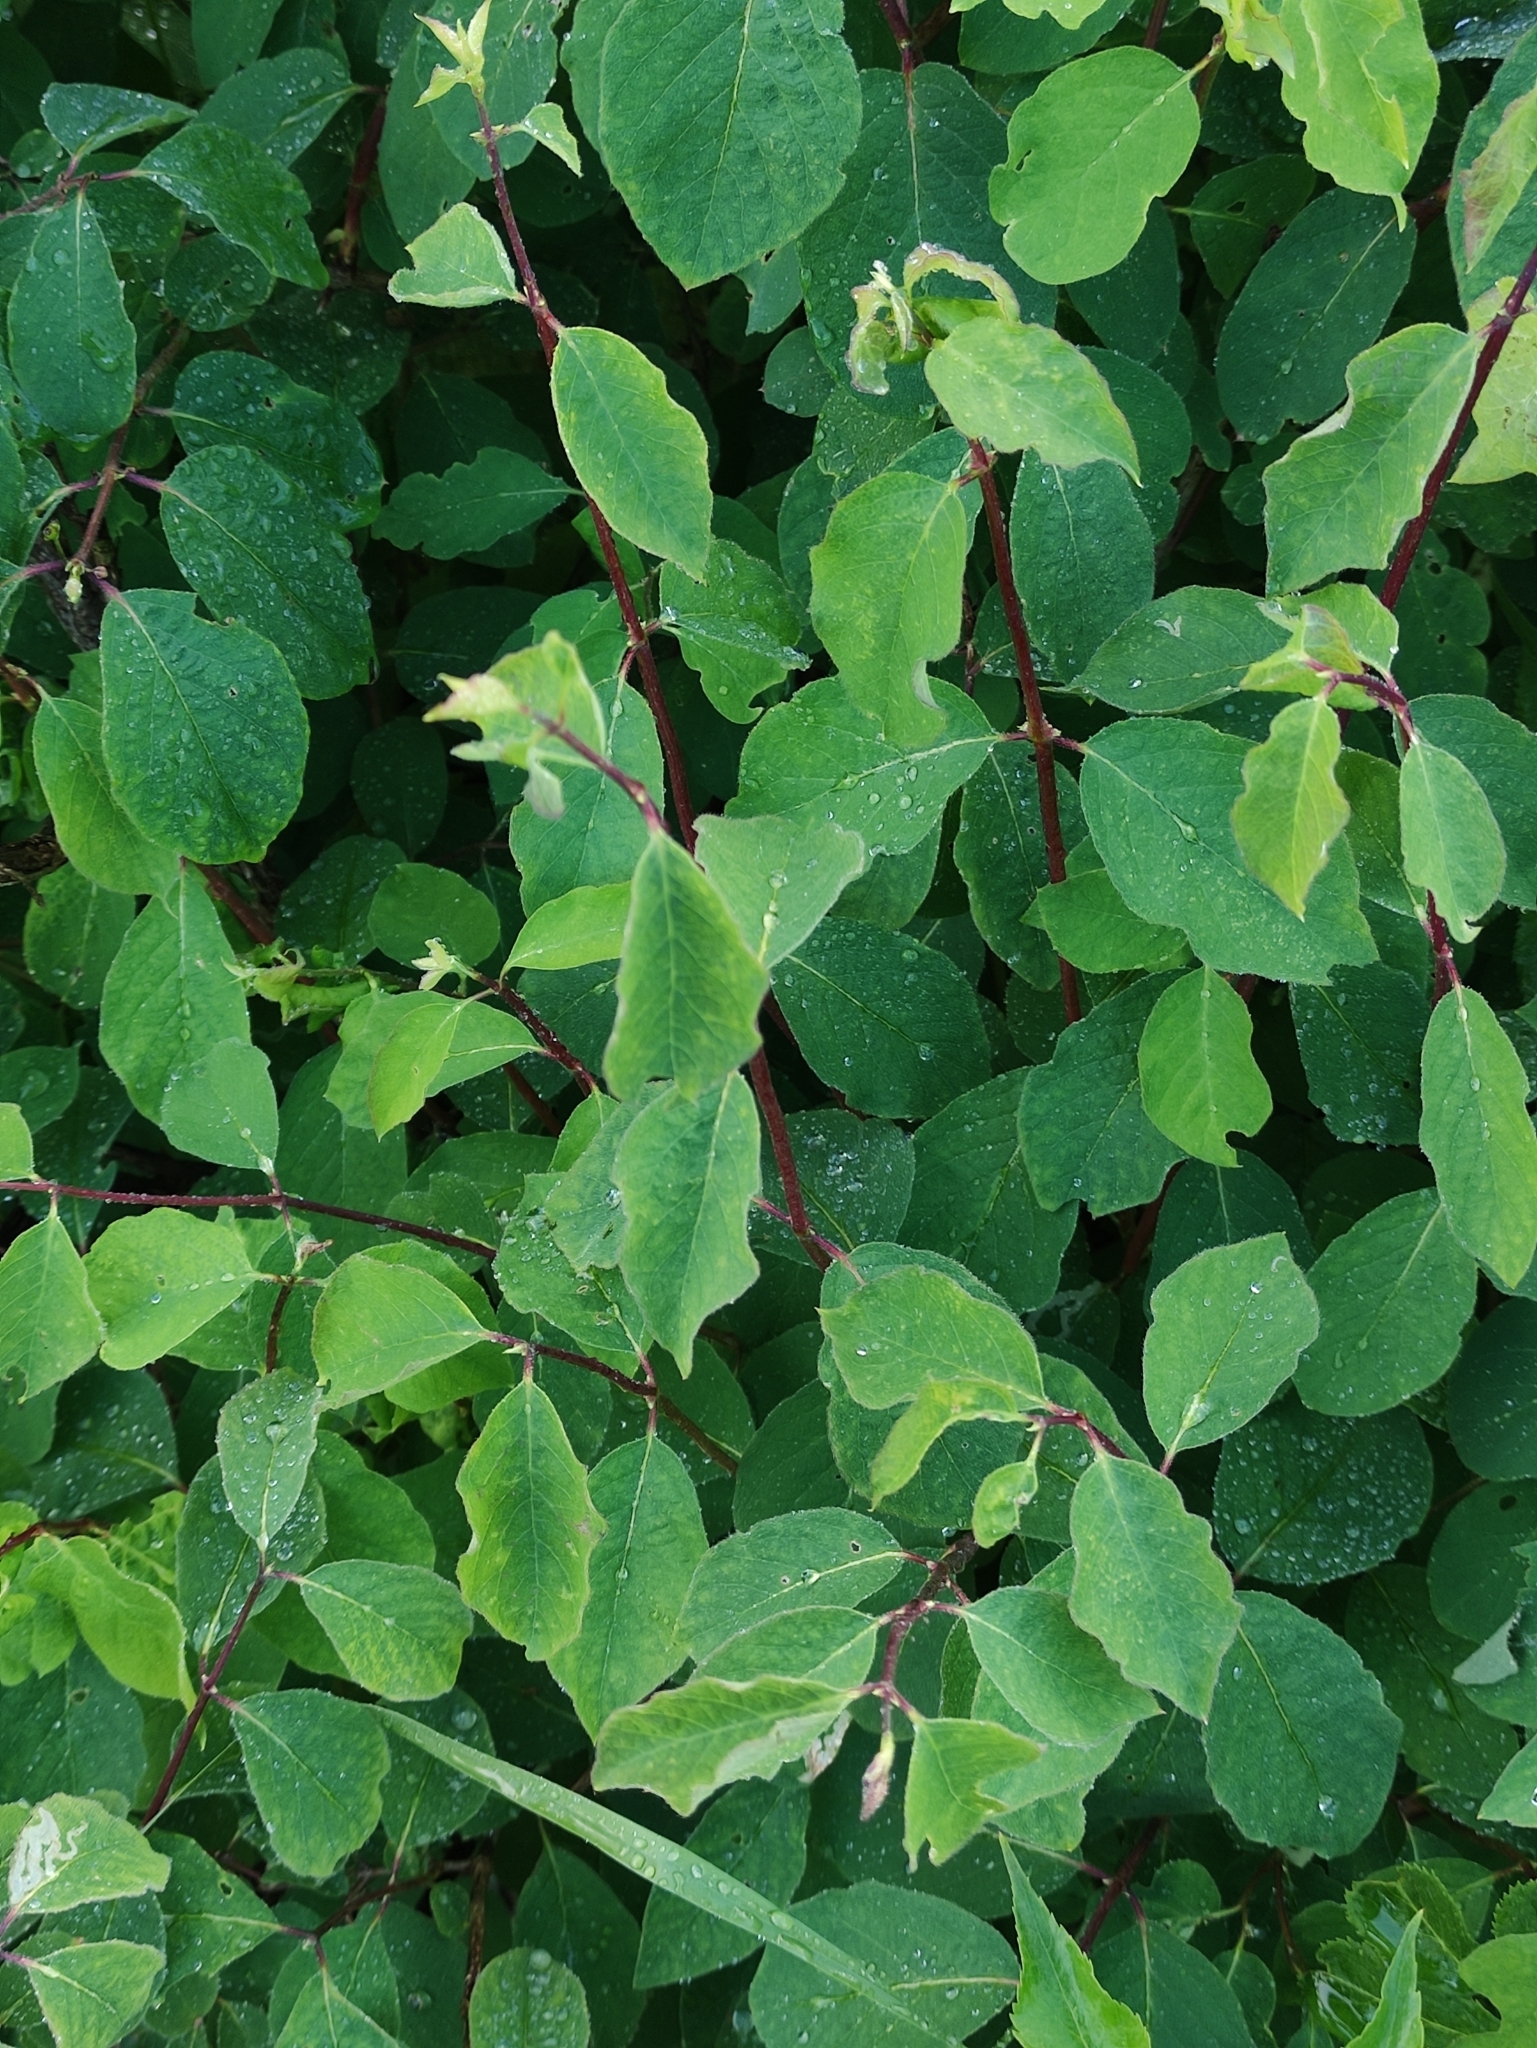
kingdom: Plantae
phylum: Tracheophyta
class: Magnoliopsida
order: Dipsacales
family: Caprifoliaceae
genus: Lonicera
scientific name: Lonicera xylosteum
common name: Fly honeysuckle
